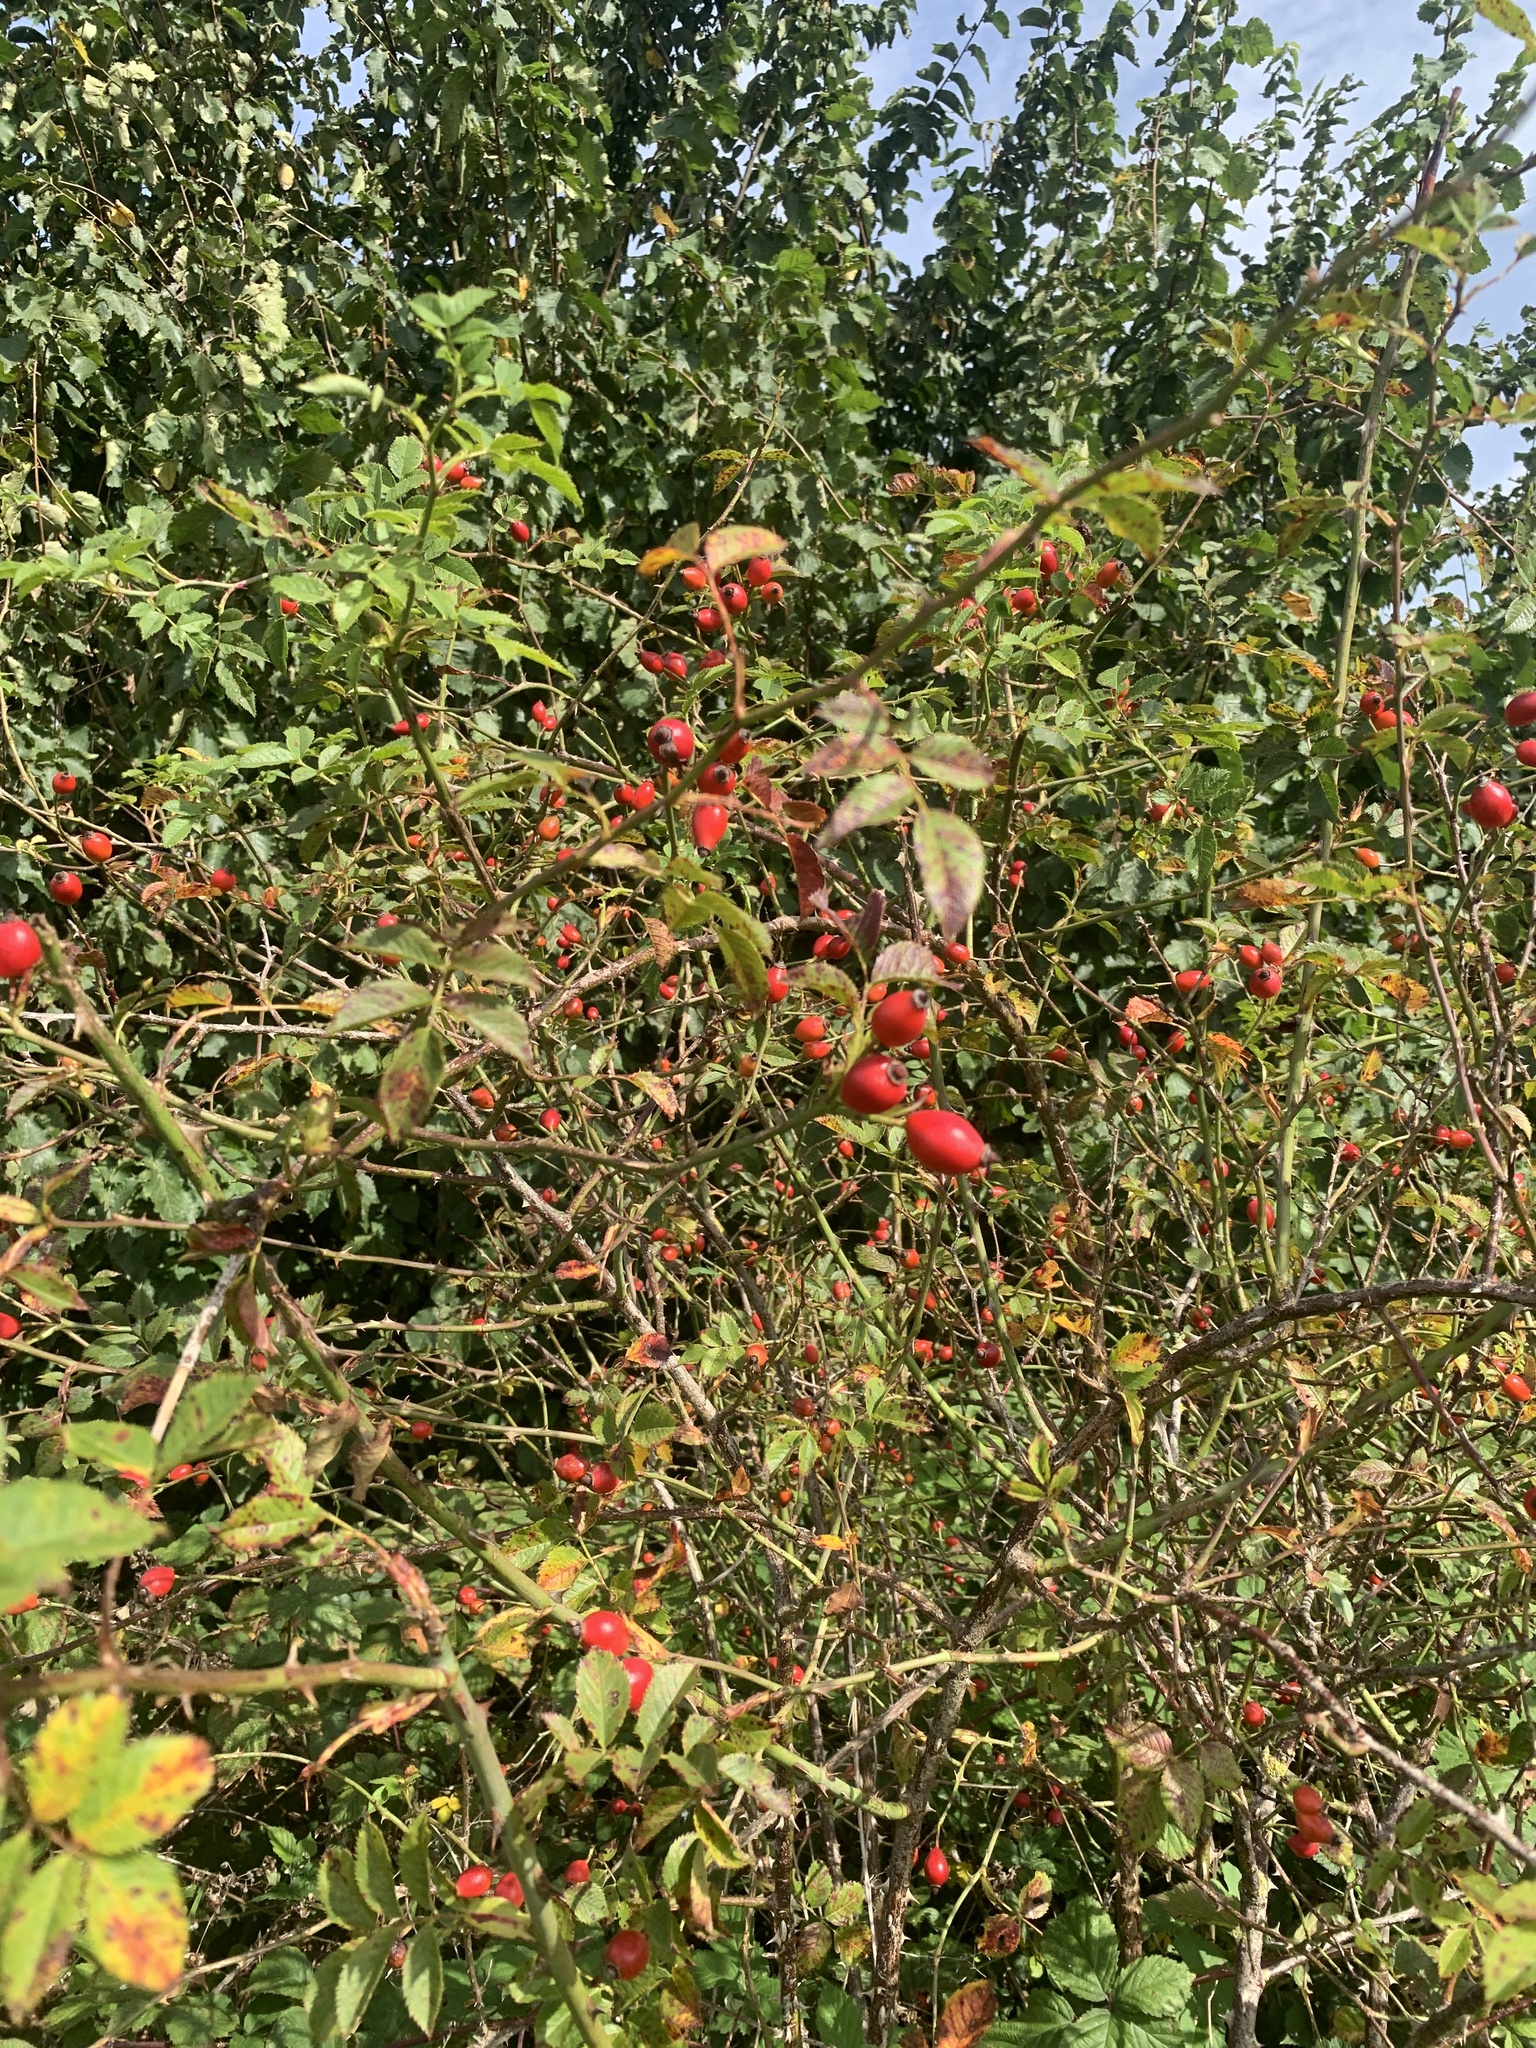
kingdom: Plantae
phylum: Tracheophyta
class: Magnoliopsida
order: Rosales
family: Rosaceae
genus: Rosa
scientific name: Rosa canina
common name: Dog rose
